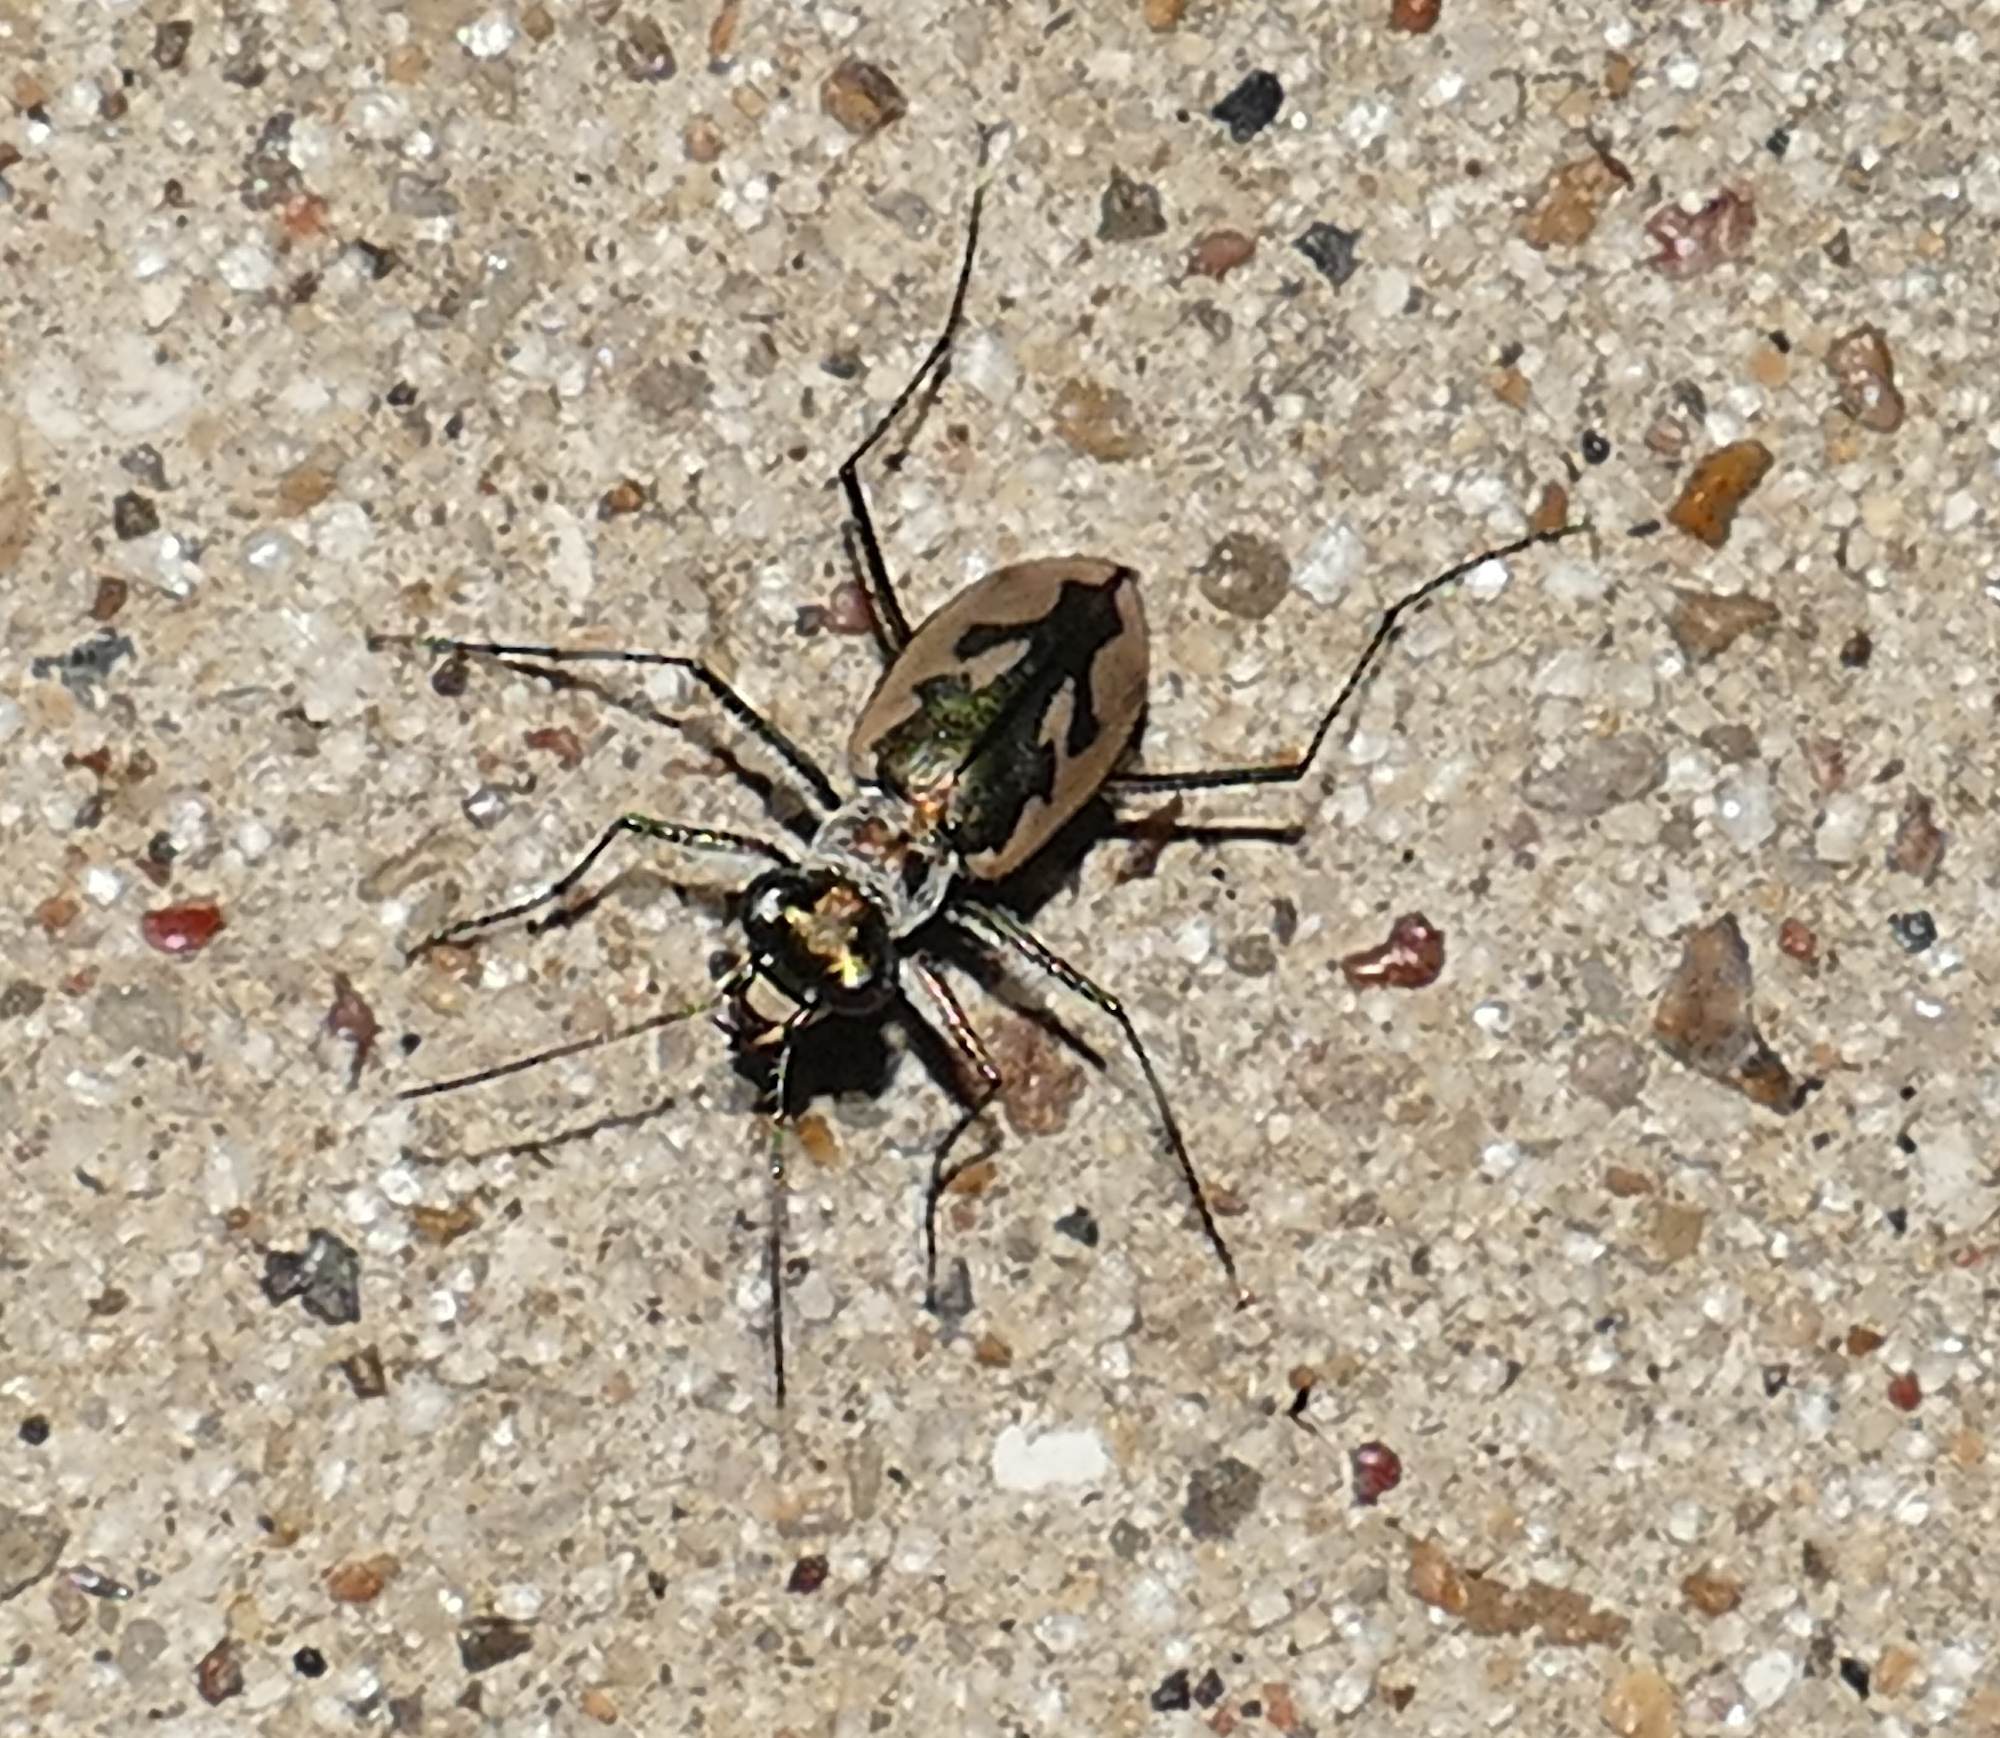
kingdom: Animalia
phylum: Arthropoda
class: Insecta
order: Coleoptera
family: Carabidae
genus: Eunota
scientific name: Eunota pamphila
